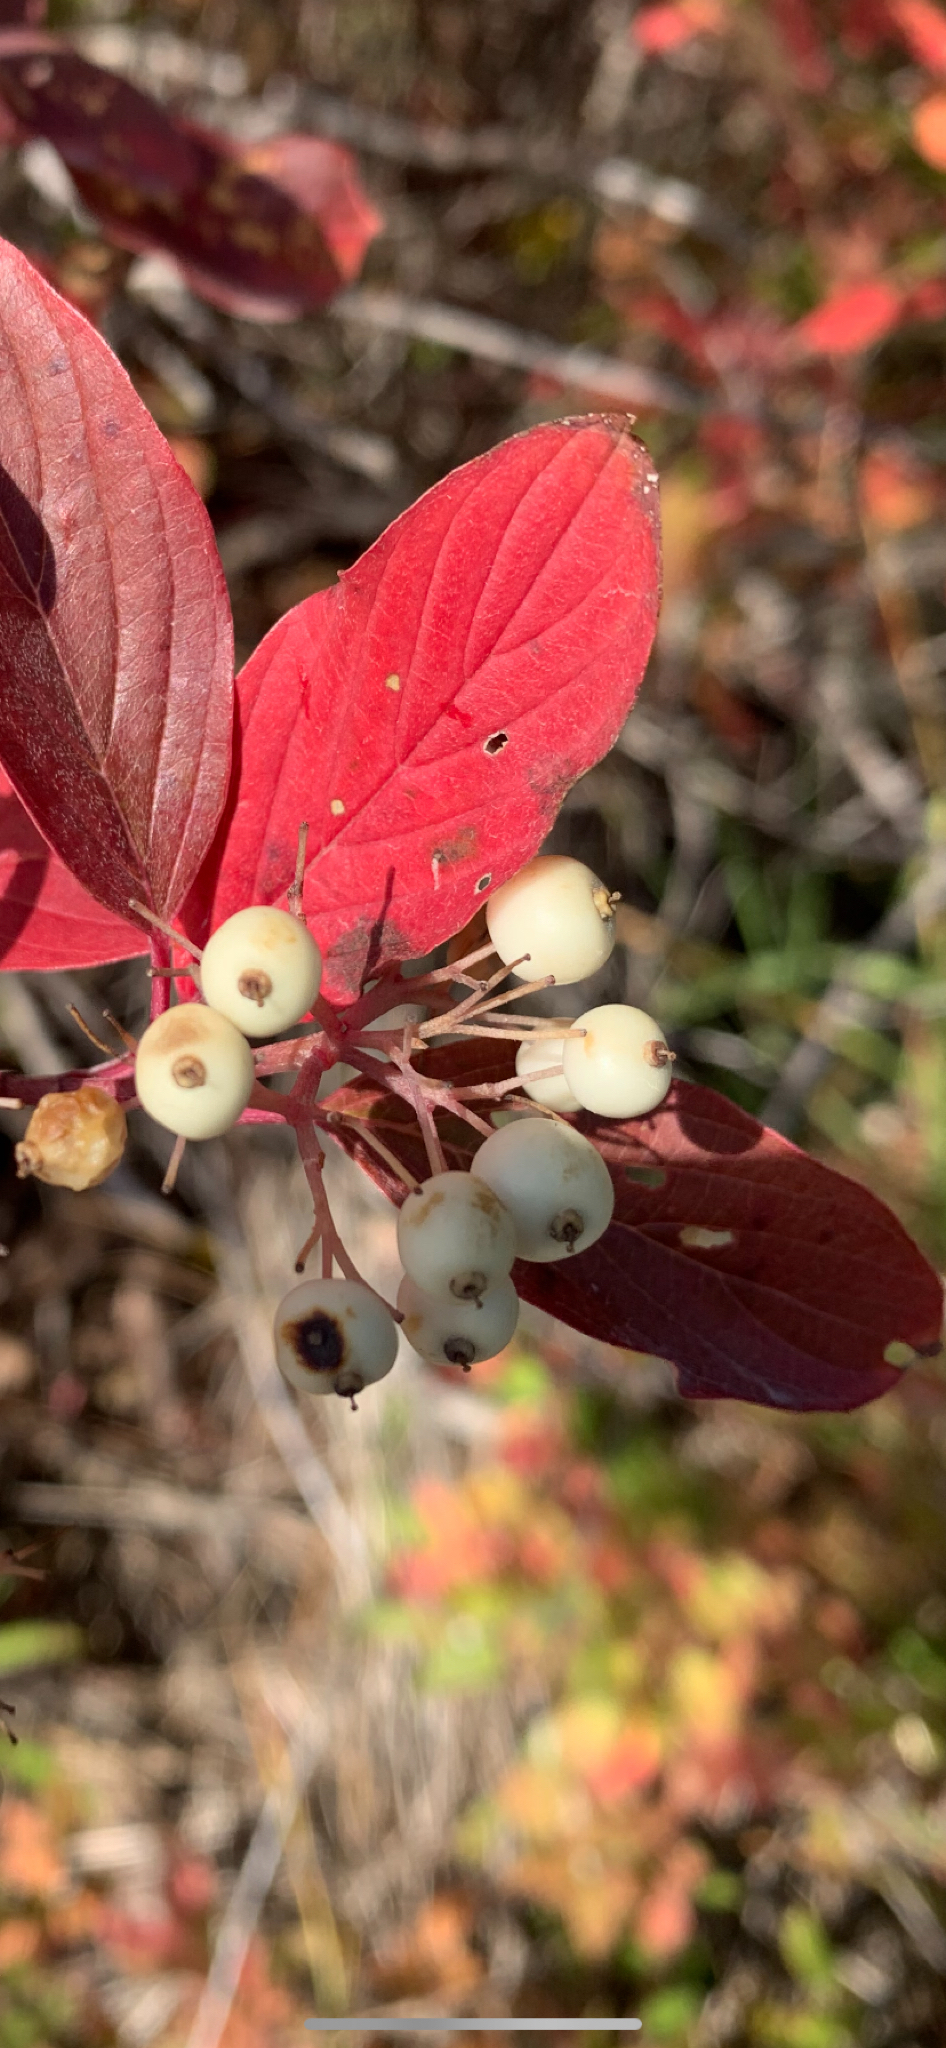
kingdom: Plantae
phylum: Tracheophyta
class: Magnoliopsida
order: Cornales
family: Cornaceae
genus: Cornus
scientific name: Cornus sericea
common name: Red-osier dogwood
